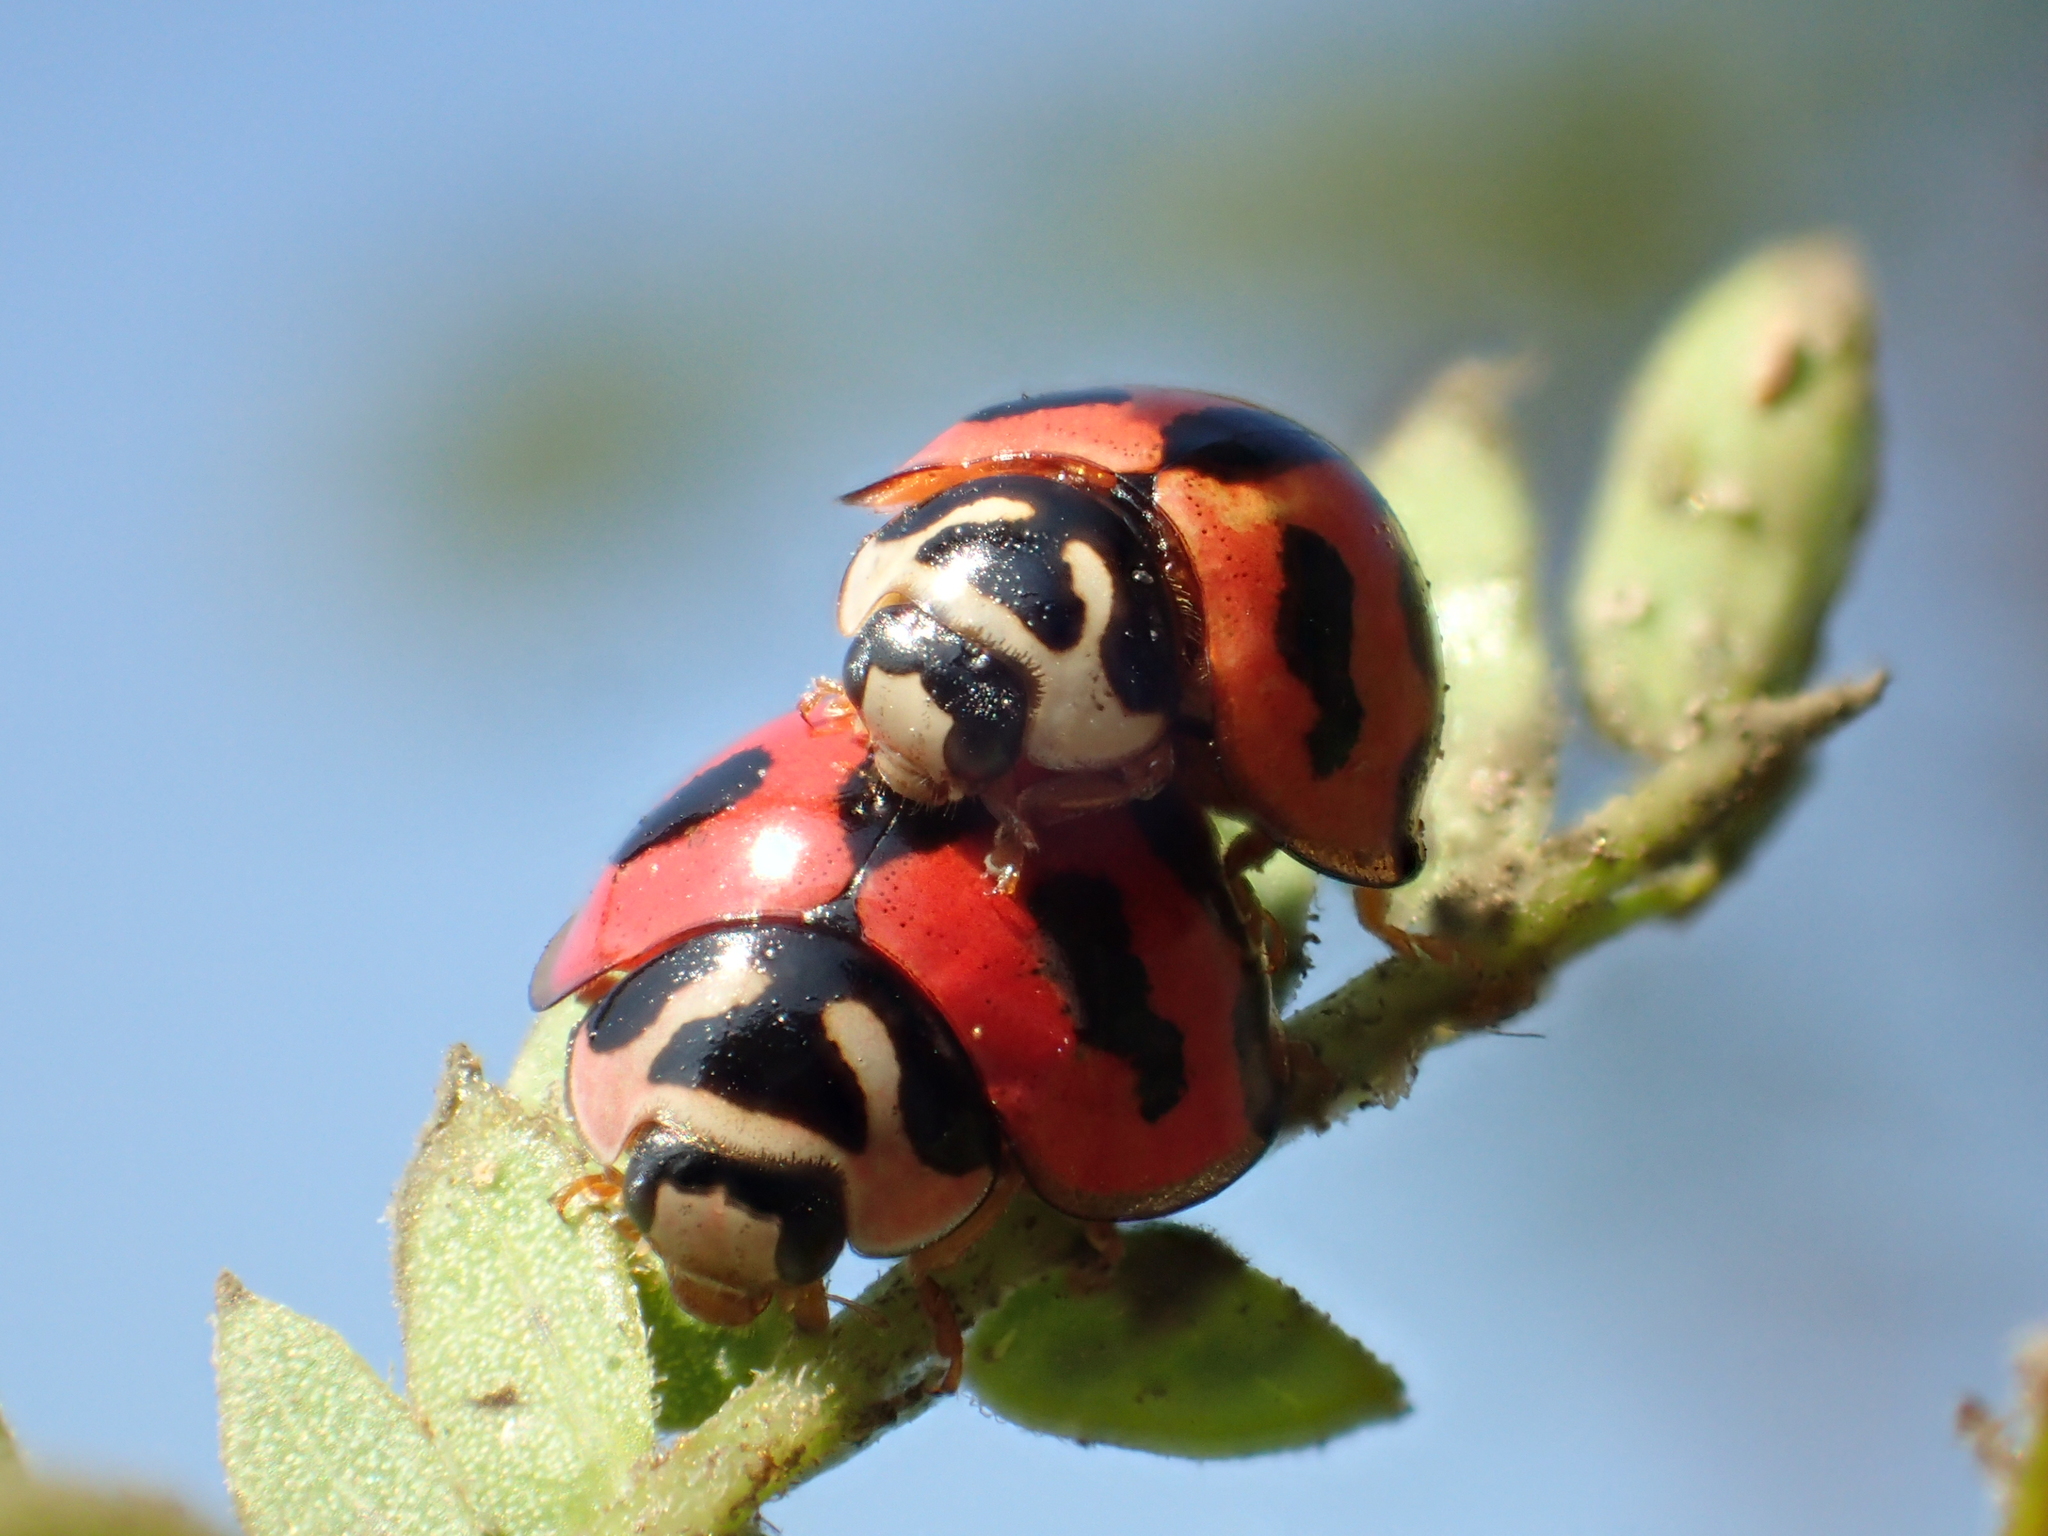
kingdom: Animalia
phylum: Arthropoda
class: Insecta
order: Coleoptera
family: Coccinellidae
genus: Cheilomenes
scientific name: Cheilomenes sexmaculata
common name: Ladybird beetle
